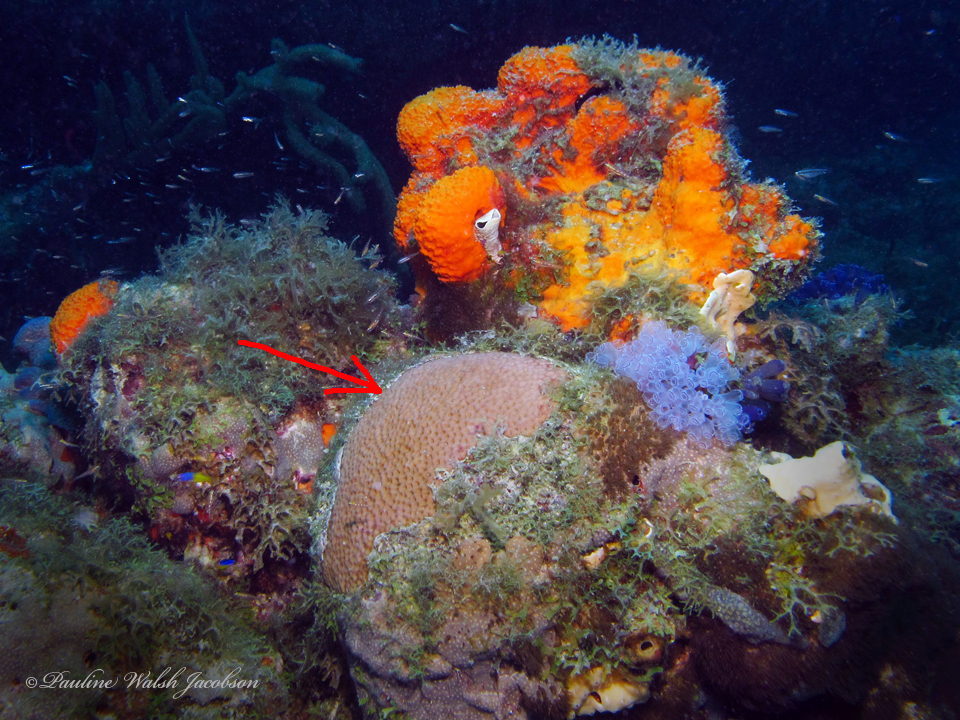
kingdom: Animalia
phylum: Cnidaria
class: Anthozoa
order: Scleractinia
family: Rhizangiidae
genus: Siderastrea
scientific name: Siderastrea siderea
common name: Massive starlet coral
